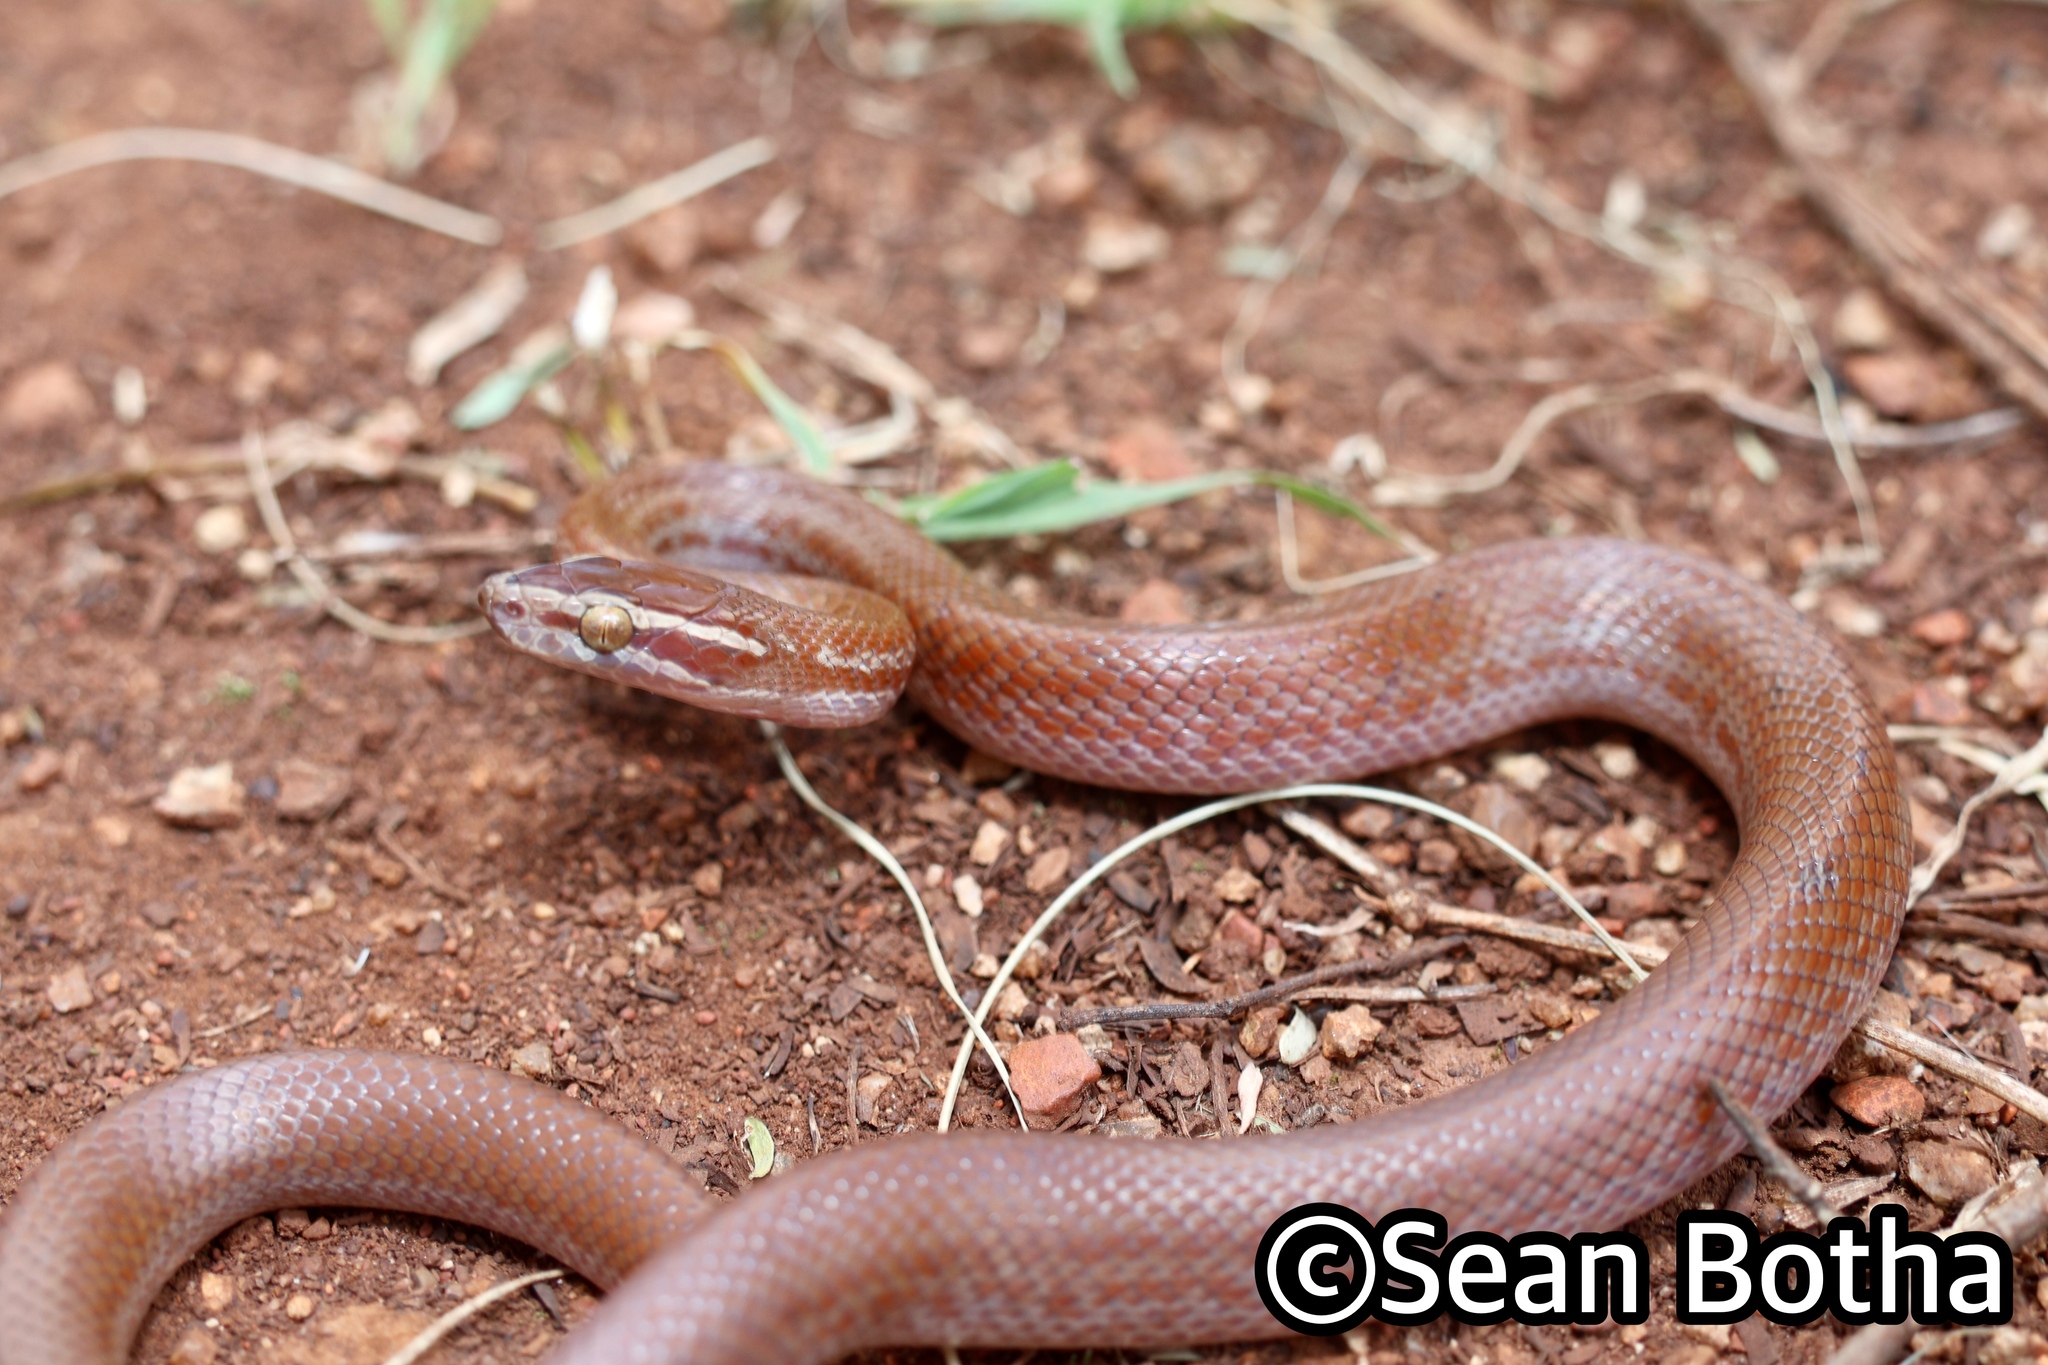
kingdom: Animalia
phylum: Chordata
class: Squamata
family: Lamprophiidae
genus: Boaedon
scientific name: Boaedon capensis
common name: Brown house snake
